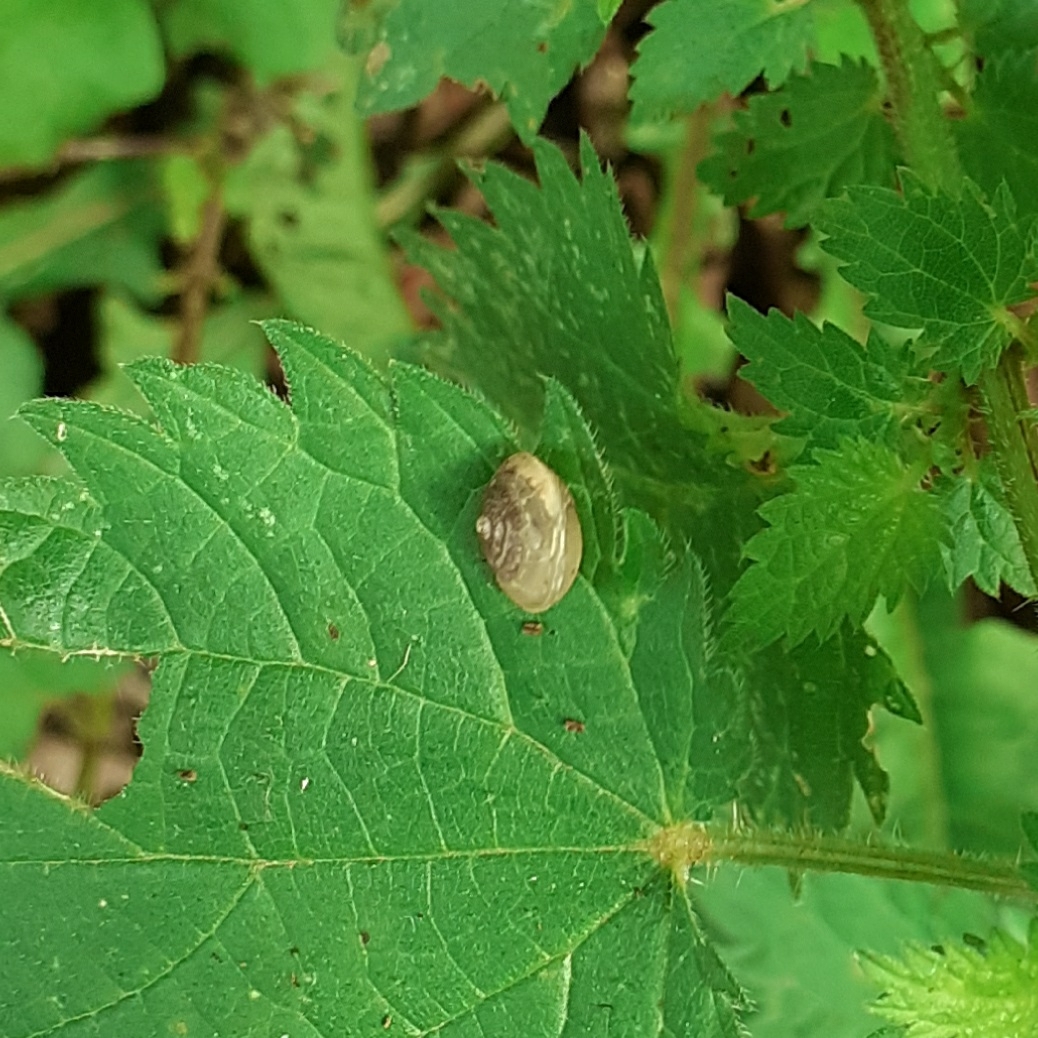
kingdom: Animalia
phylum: Mollusca
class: Gastropoda
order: Stylommatophora
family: Hygromiidae
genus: Hygromia
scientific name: Hygromia cinctella
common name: Girdled snail
